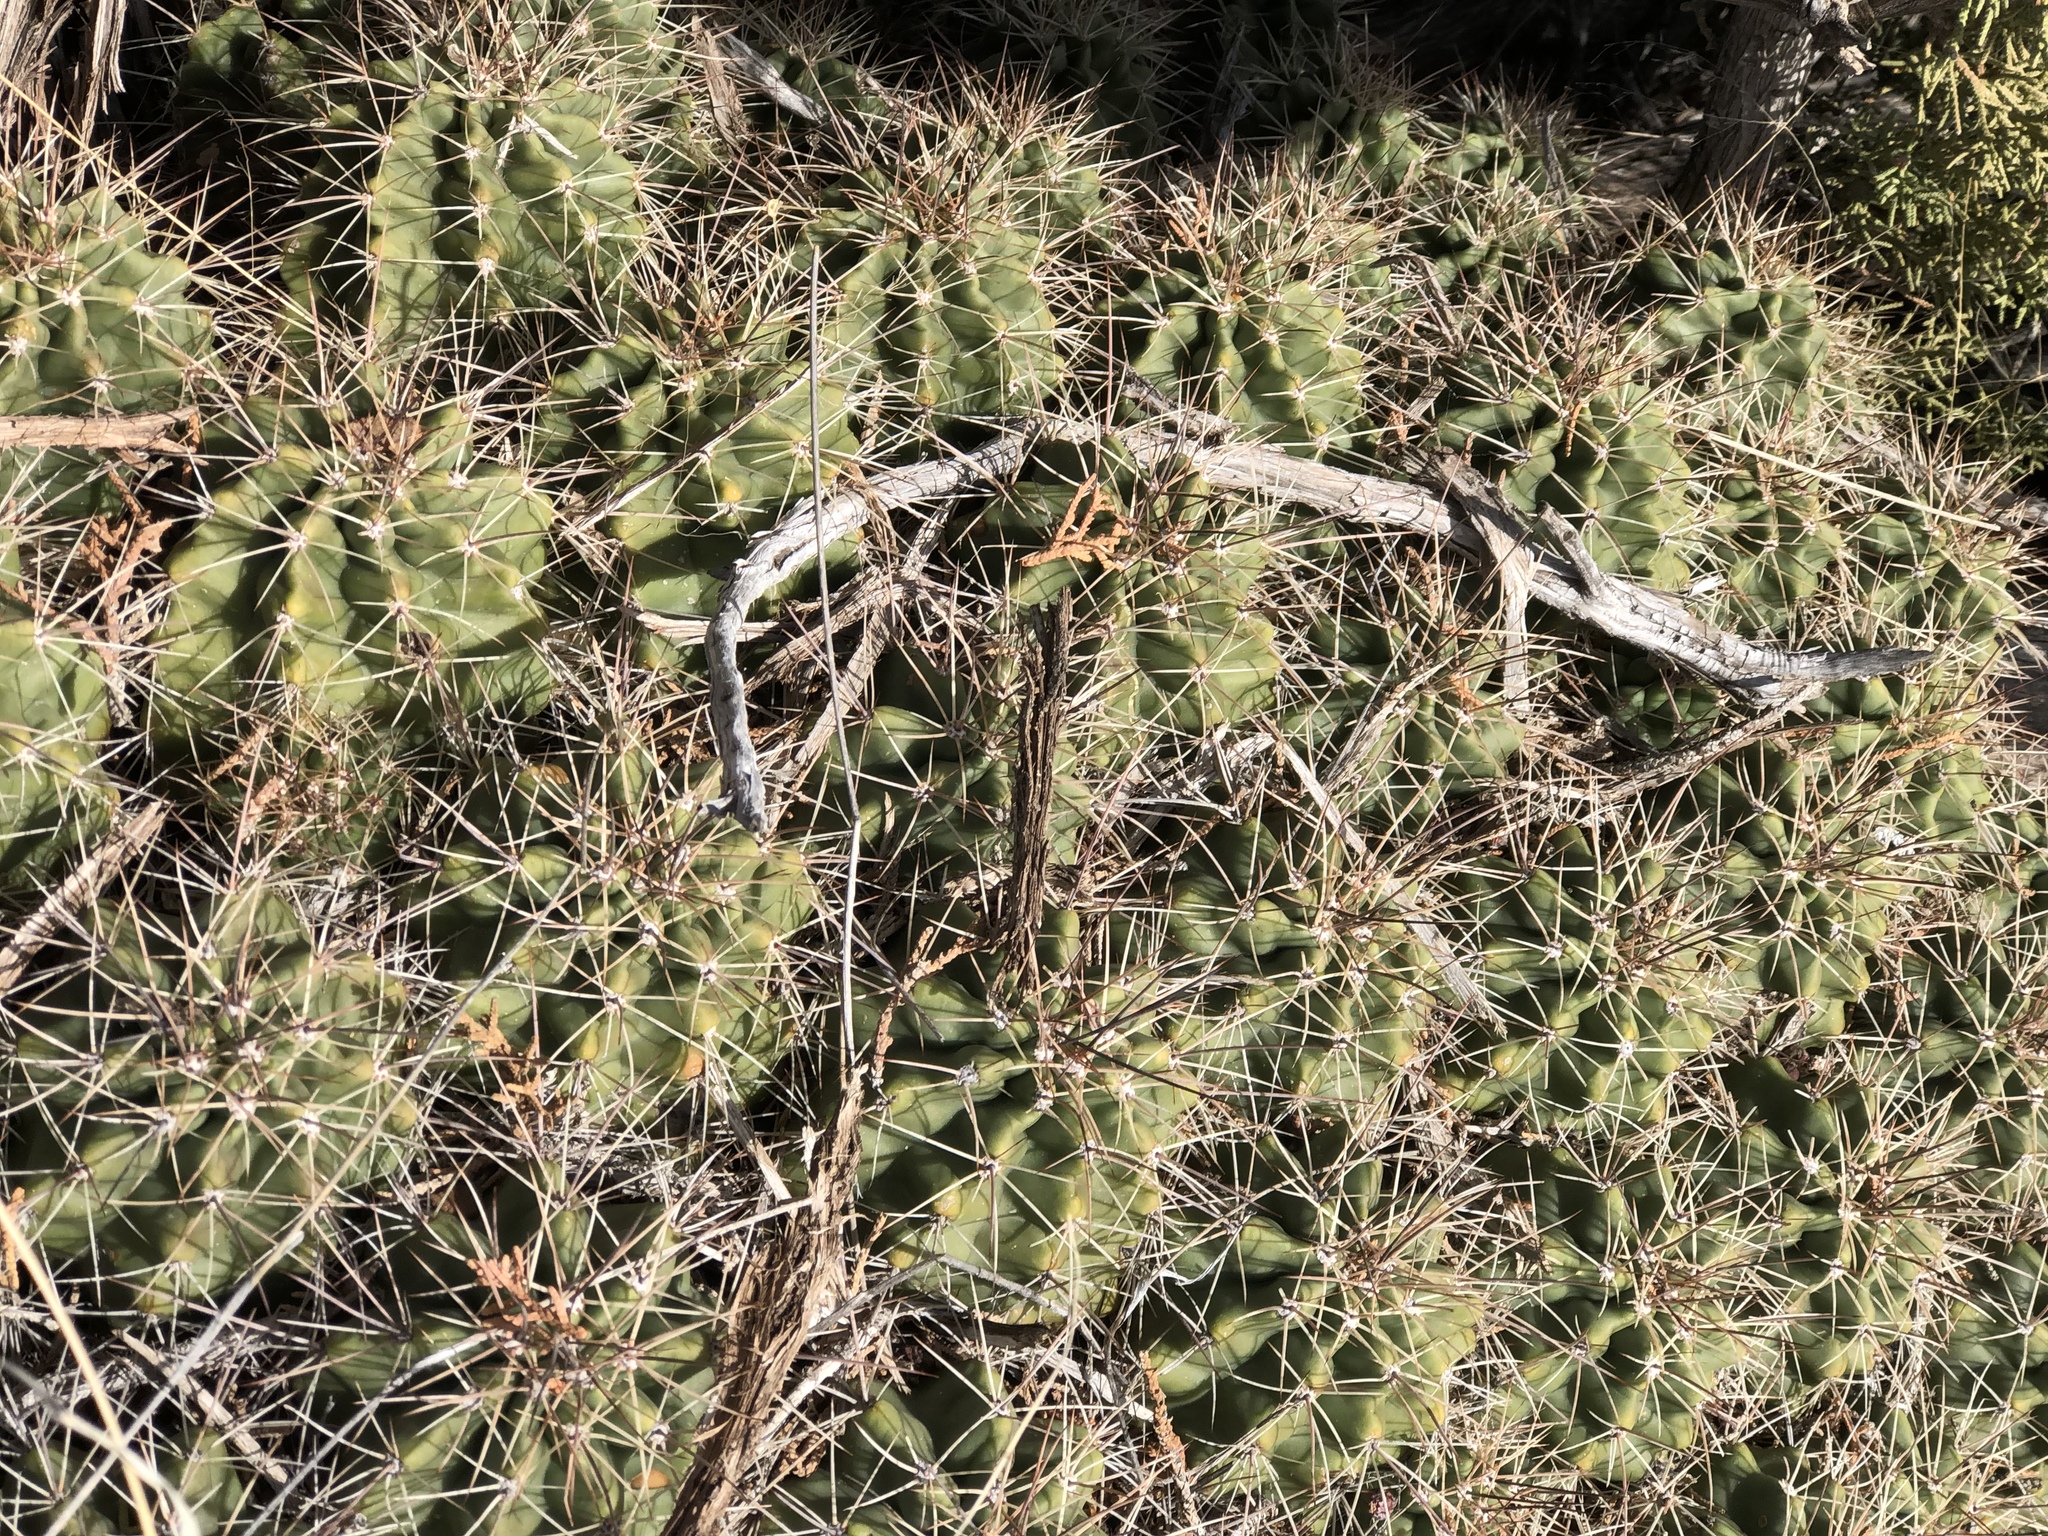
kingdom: Plantae
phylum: Tracheophyta
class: Magnoliopsida
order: Caryophyllales
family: Cactaceae
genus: Echinocereus
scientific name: Echinocereus coccineus
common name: Scarlet hedgehog cactus
